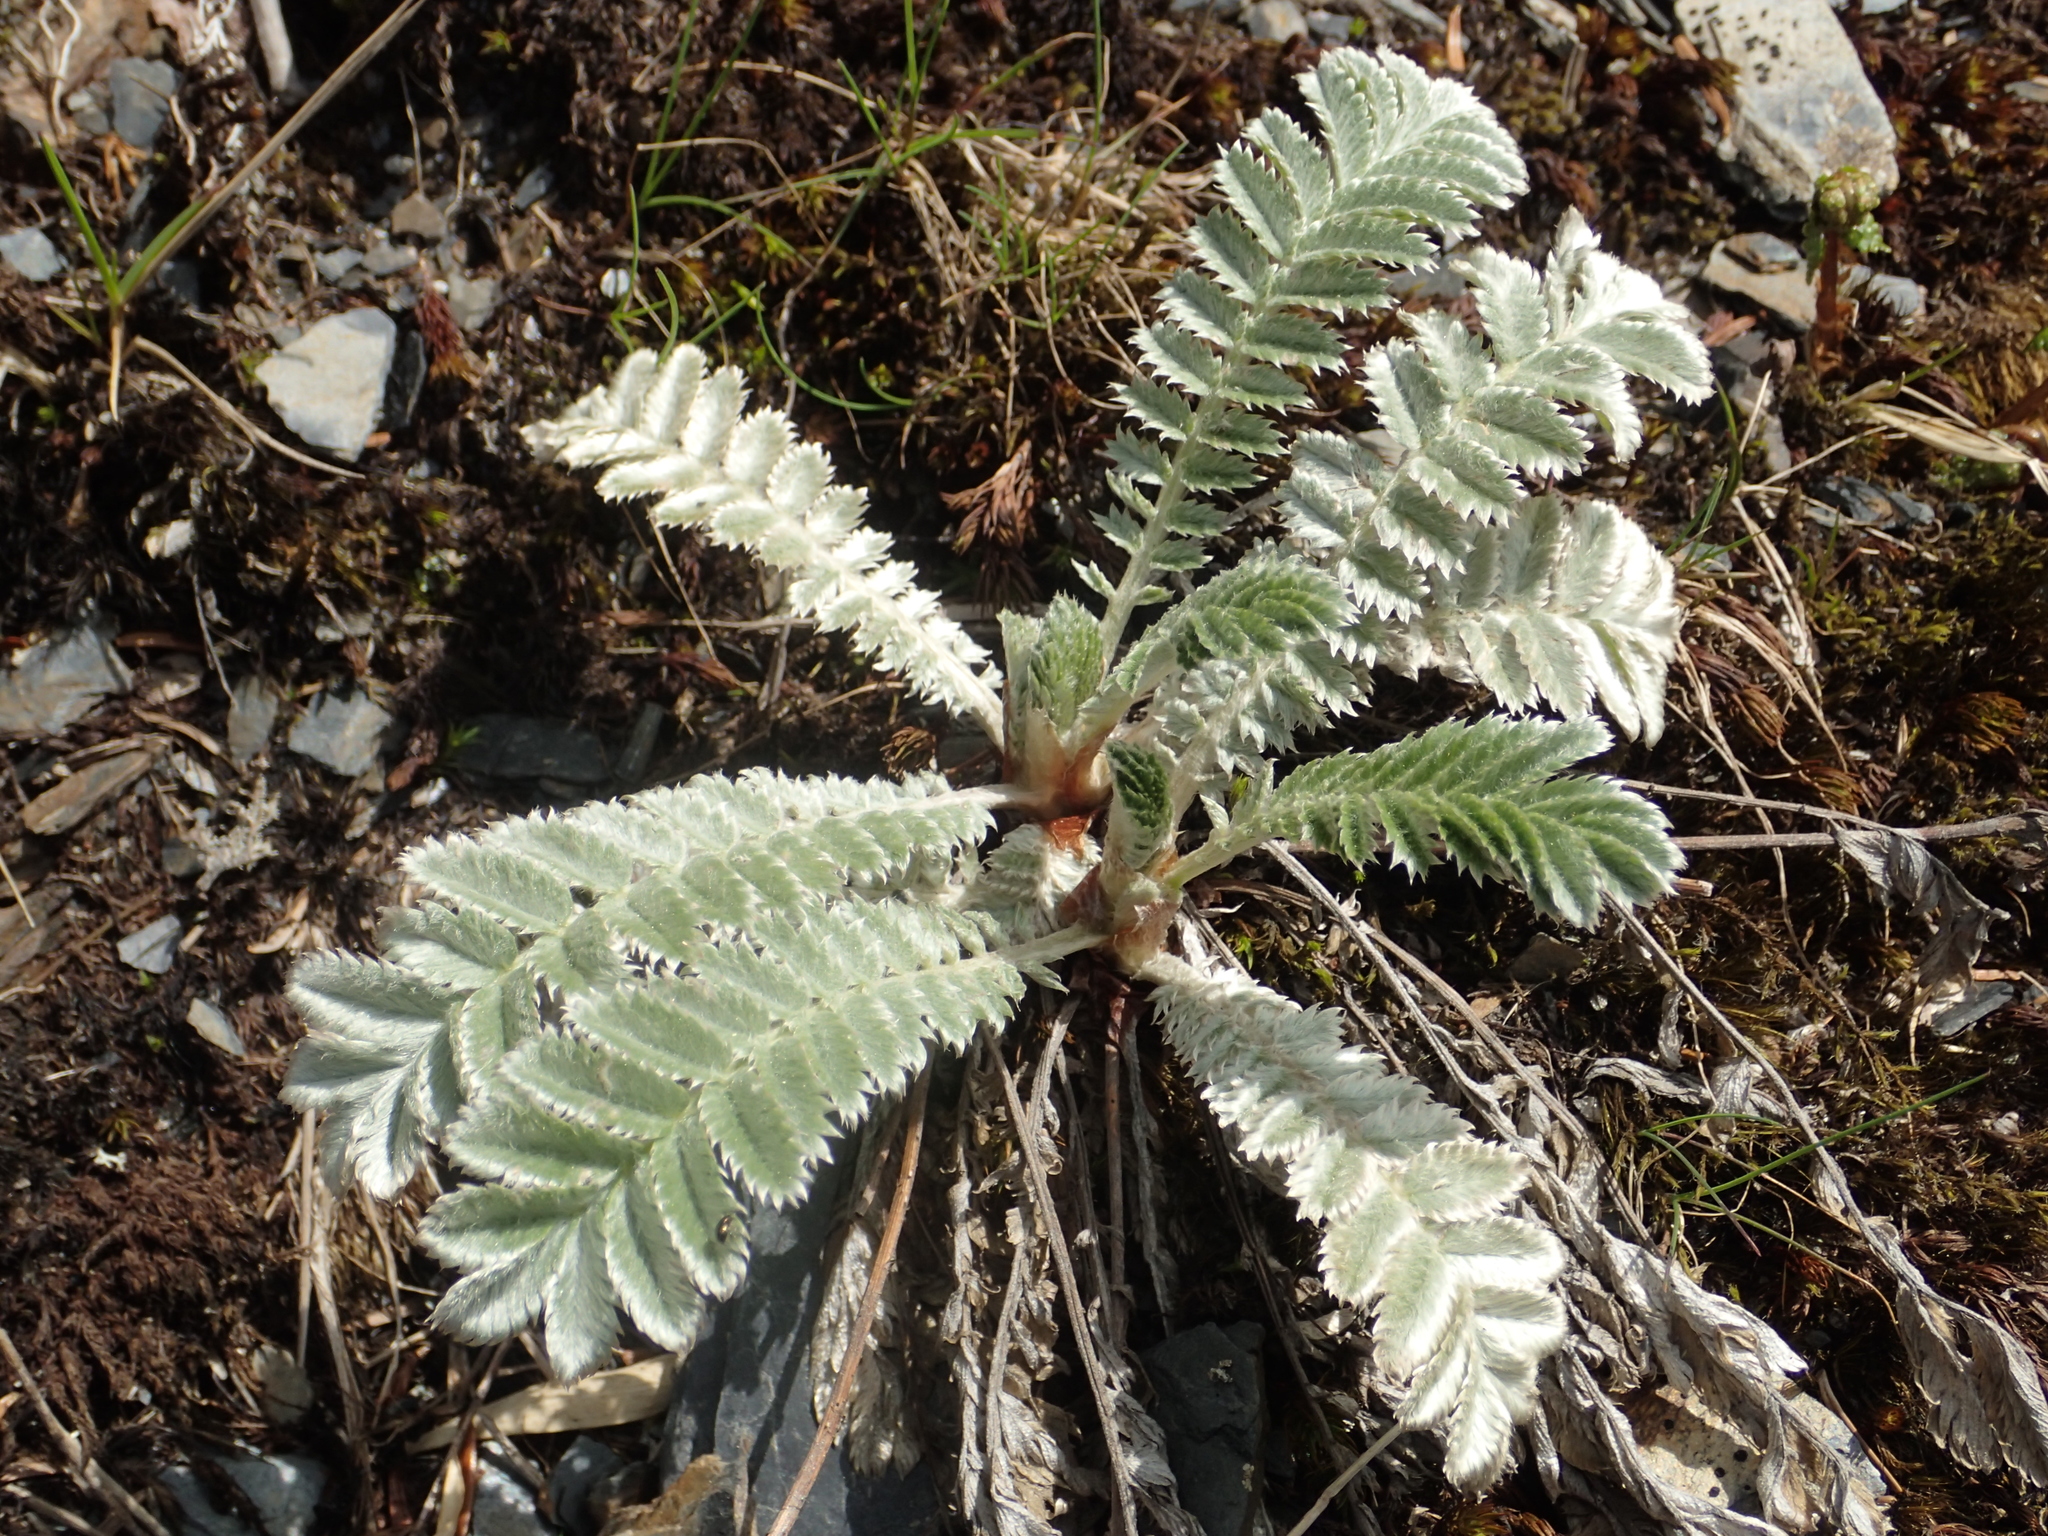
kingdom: Plantae
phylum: Tracheophyta
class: Magnoliopsida
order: Rosales
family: Rosaceae
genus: Argentina
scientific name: Argentina leuconota
